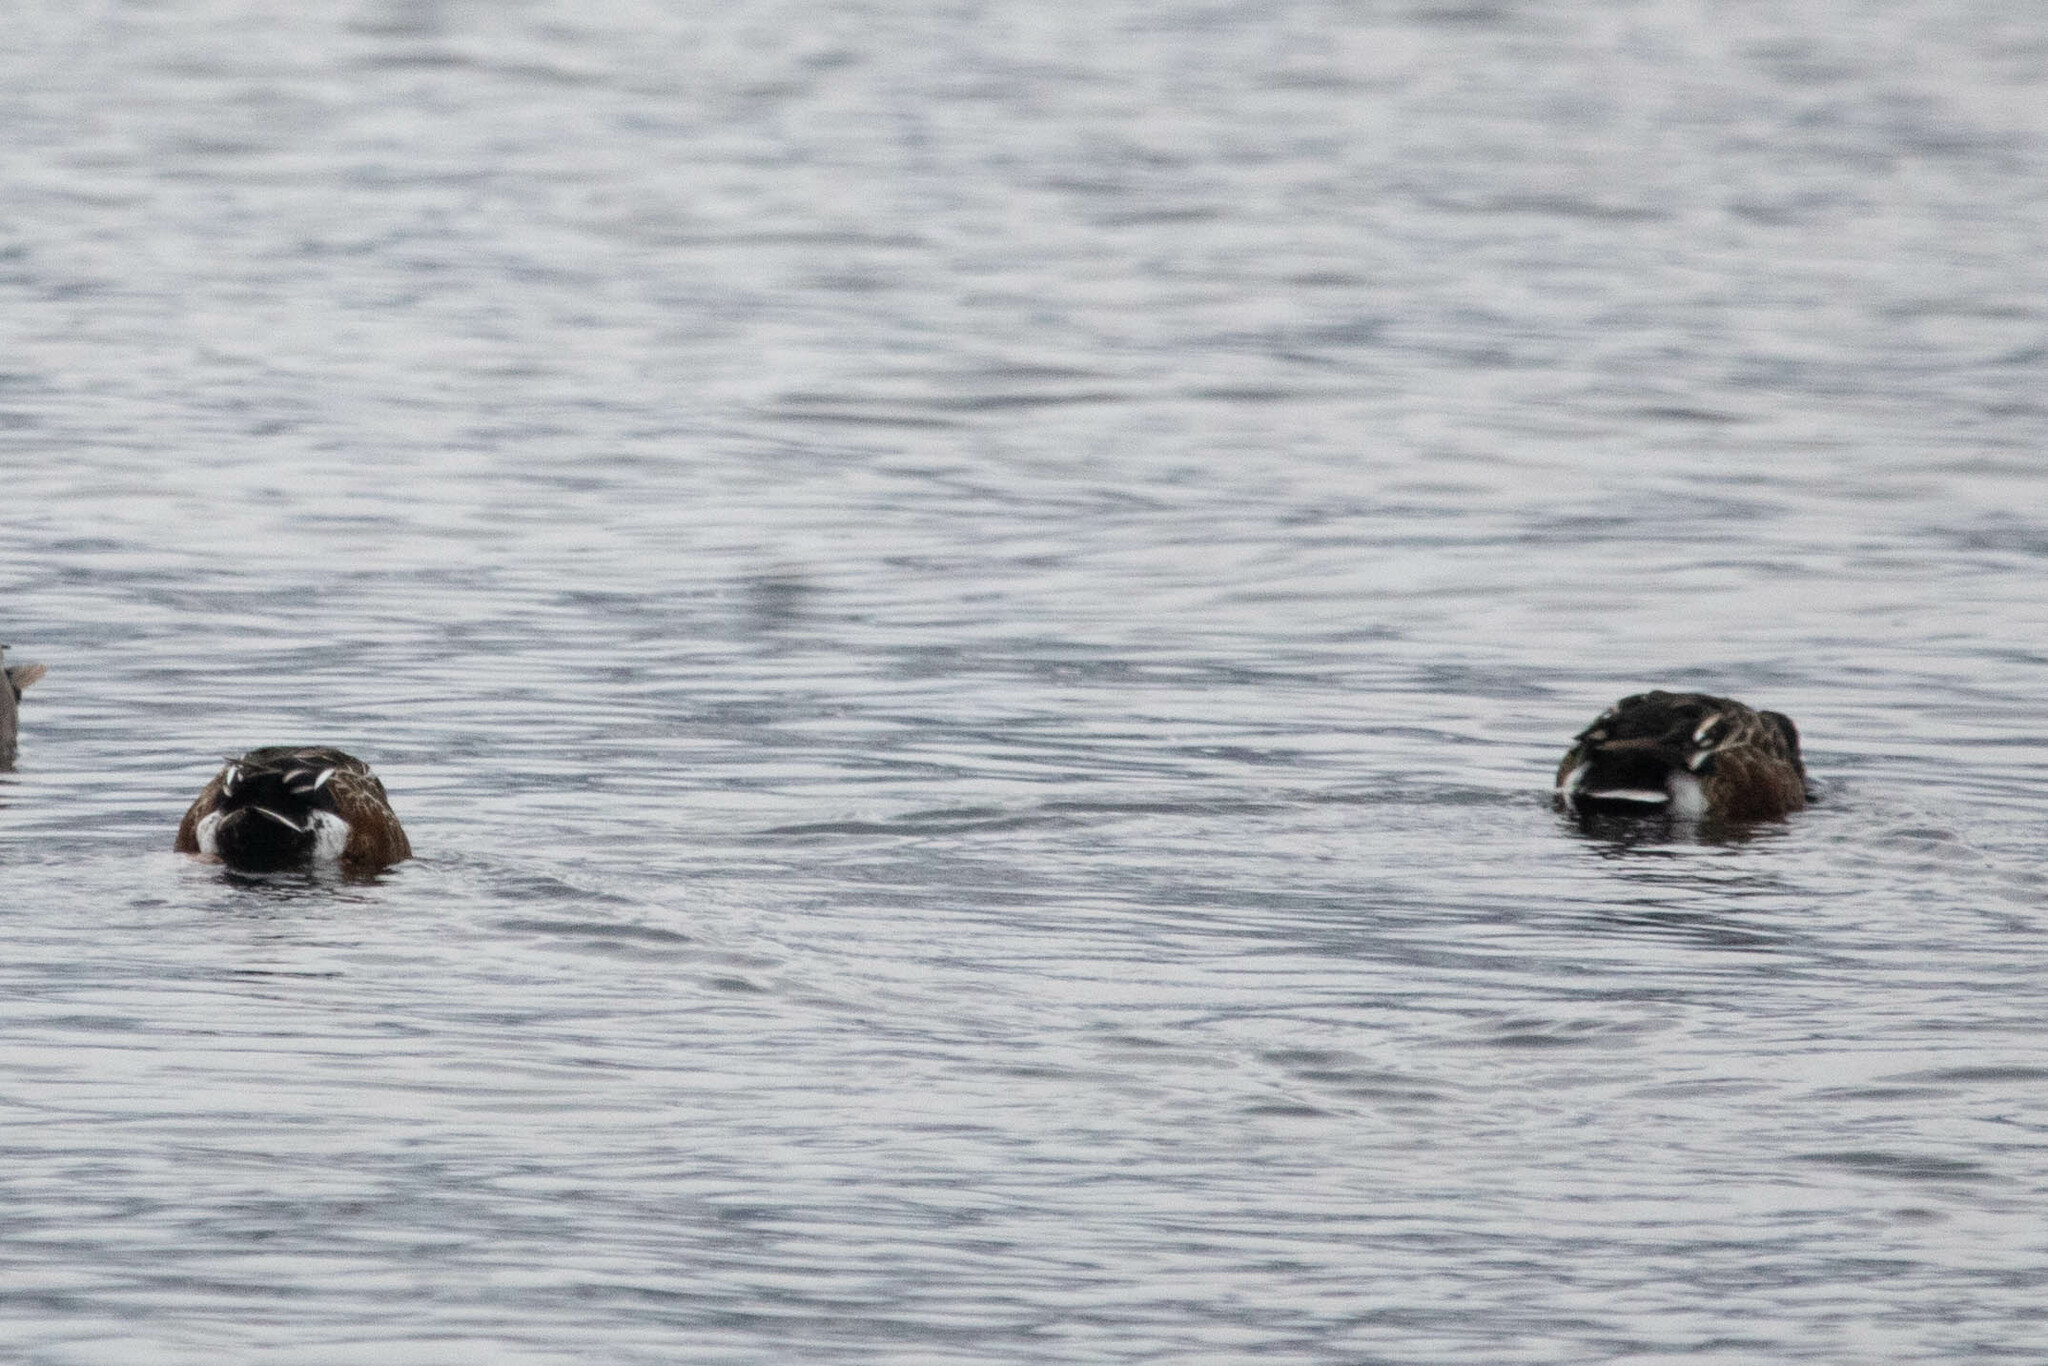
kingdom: Animalia
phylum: Chordata
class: Aves
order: Anseriformes
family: Anatidae
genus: Spatula
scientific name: Spatula clypeata
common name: Northern shoveler
